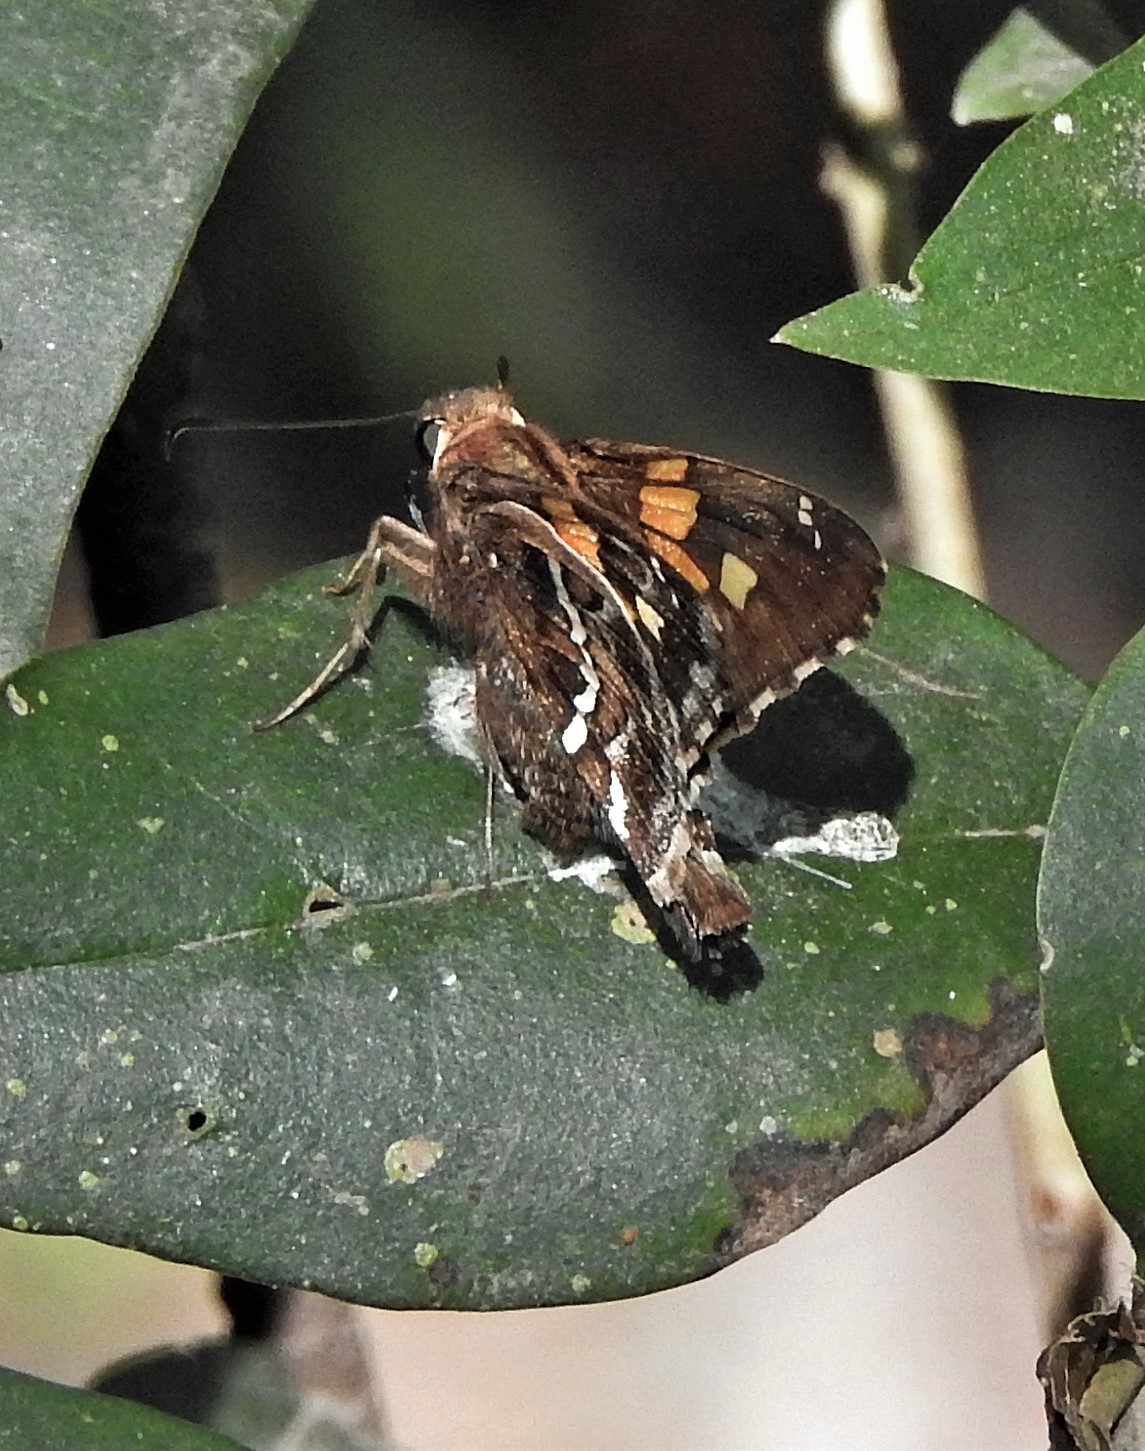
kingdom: Animalia
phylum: Arthropoda
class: Insecta
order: Lepidoptera
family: Hesperiidae
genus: Epargyreus
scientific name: Epargyreus barisses
